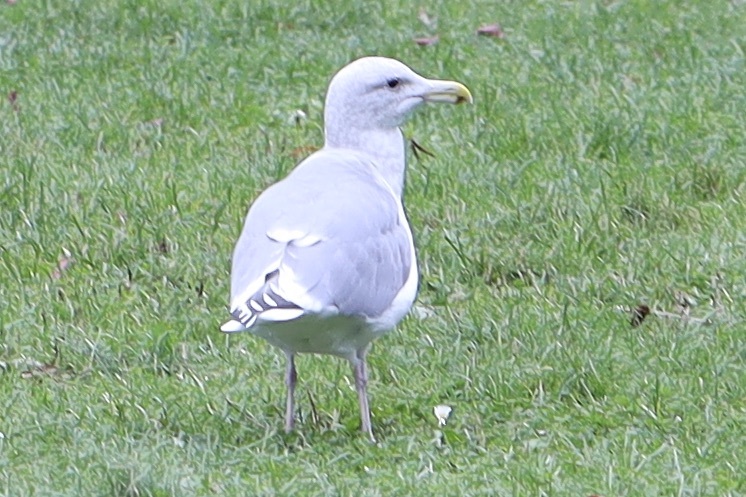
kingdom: Animalia
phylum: Chordata
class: Aves
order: Charadriiformes
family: Laridae
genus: Larus
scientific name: Larus
